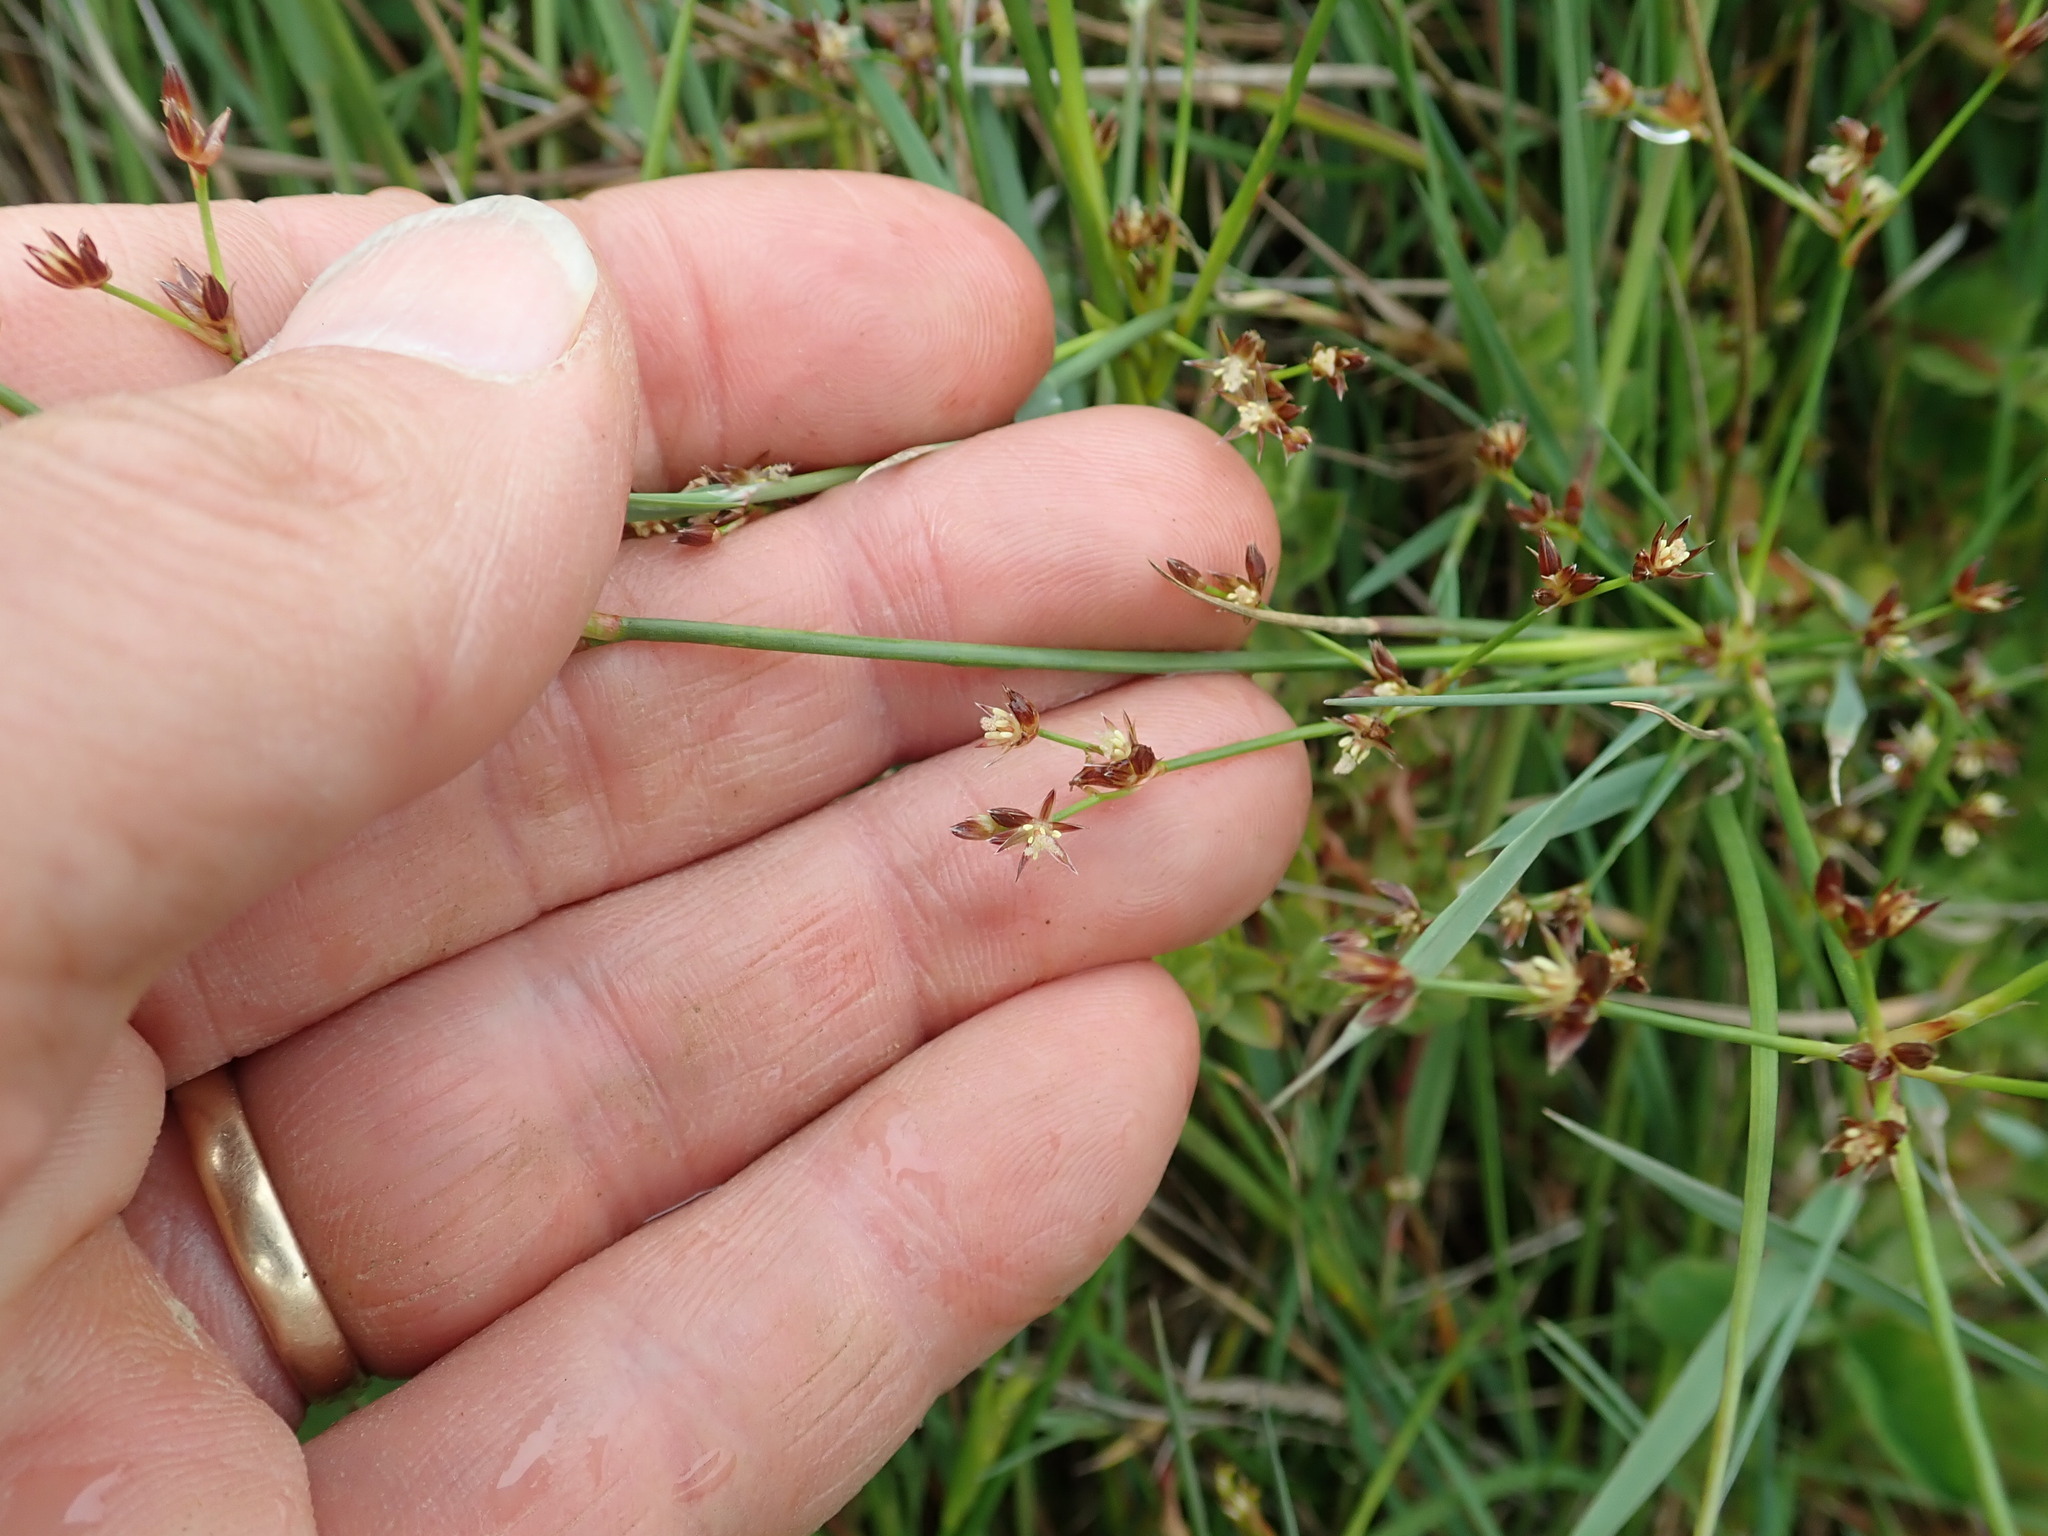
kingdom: Plantae
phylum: Tracheophyta
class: Liliopsida
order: Poales
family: Juncaceae
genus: Juncus
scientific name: Juncus articulatus
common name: Jointed rush
